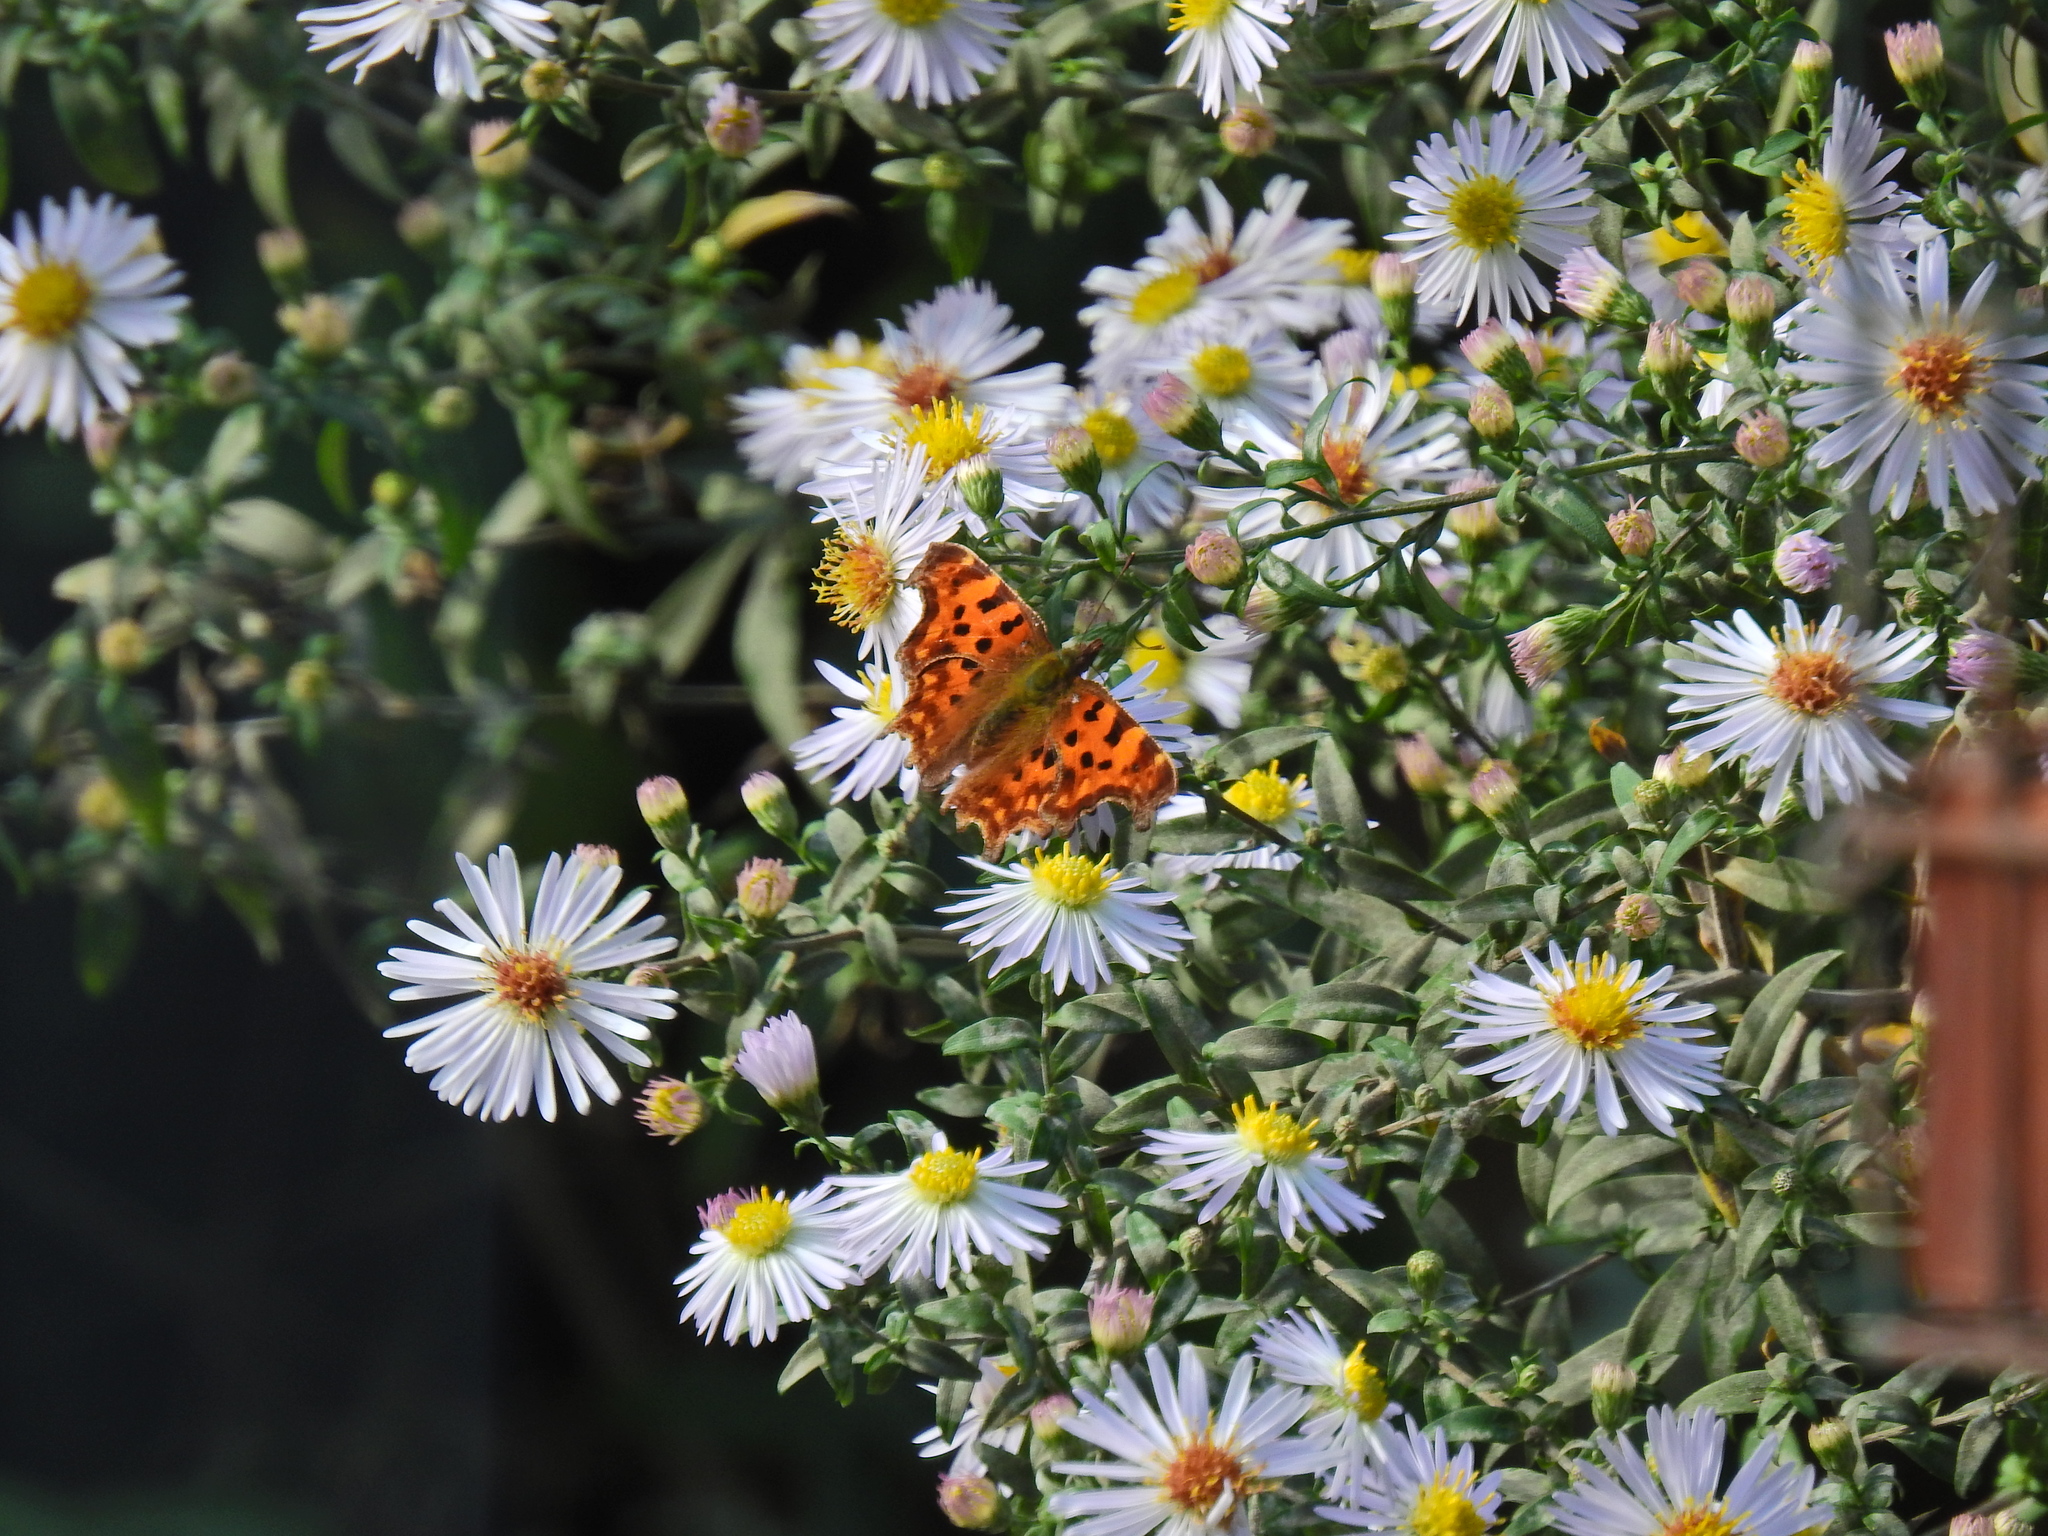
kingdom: Animalia
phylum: Arthropoda
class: Insecta
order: Lepidoptera
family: Nymphalidae
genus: Polygonia
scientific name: Polygonia c-album
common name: Comma
